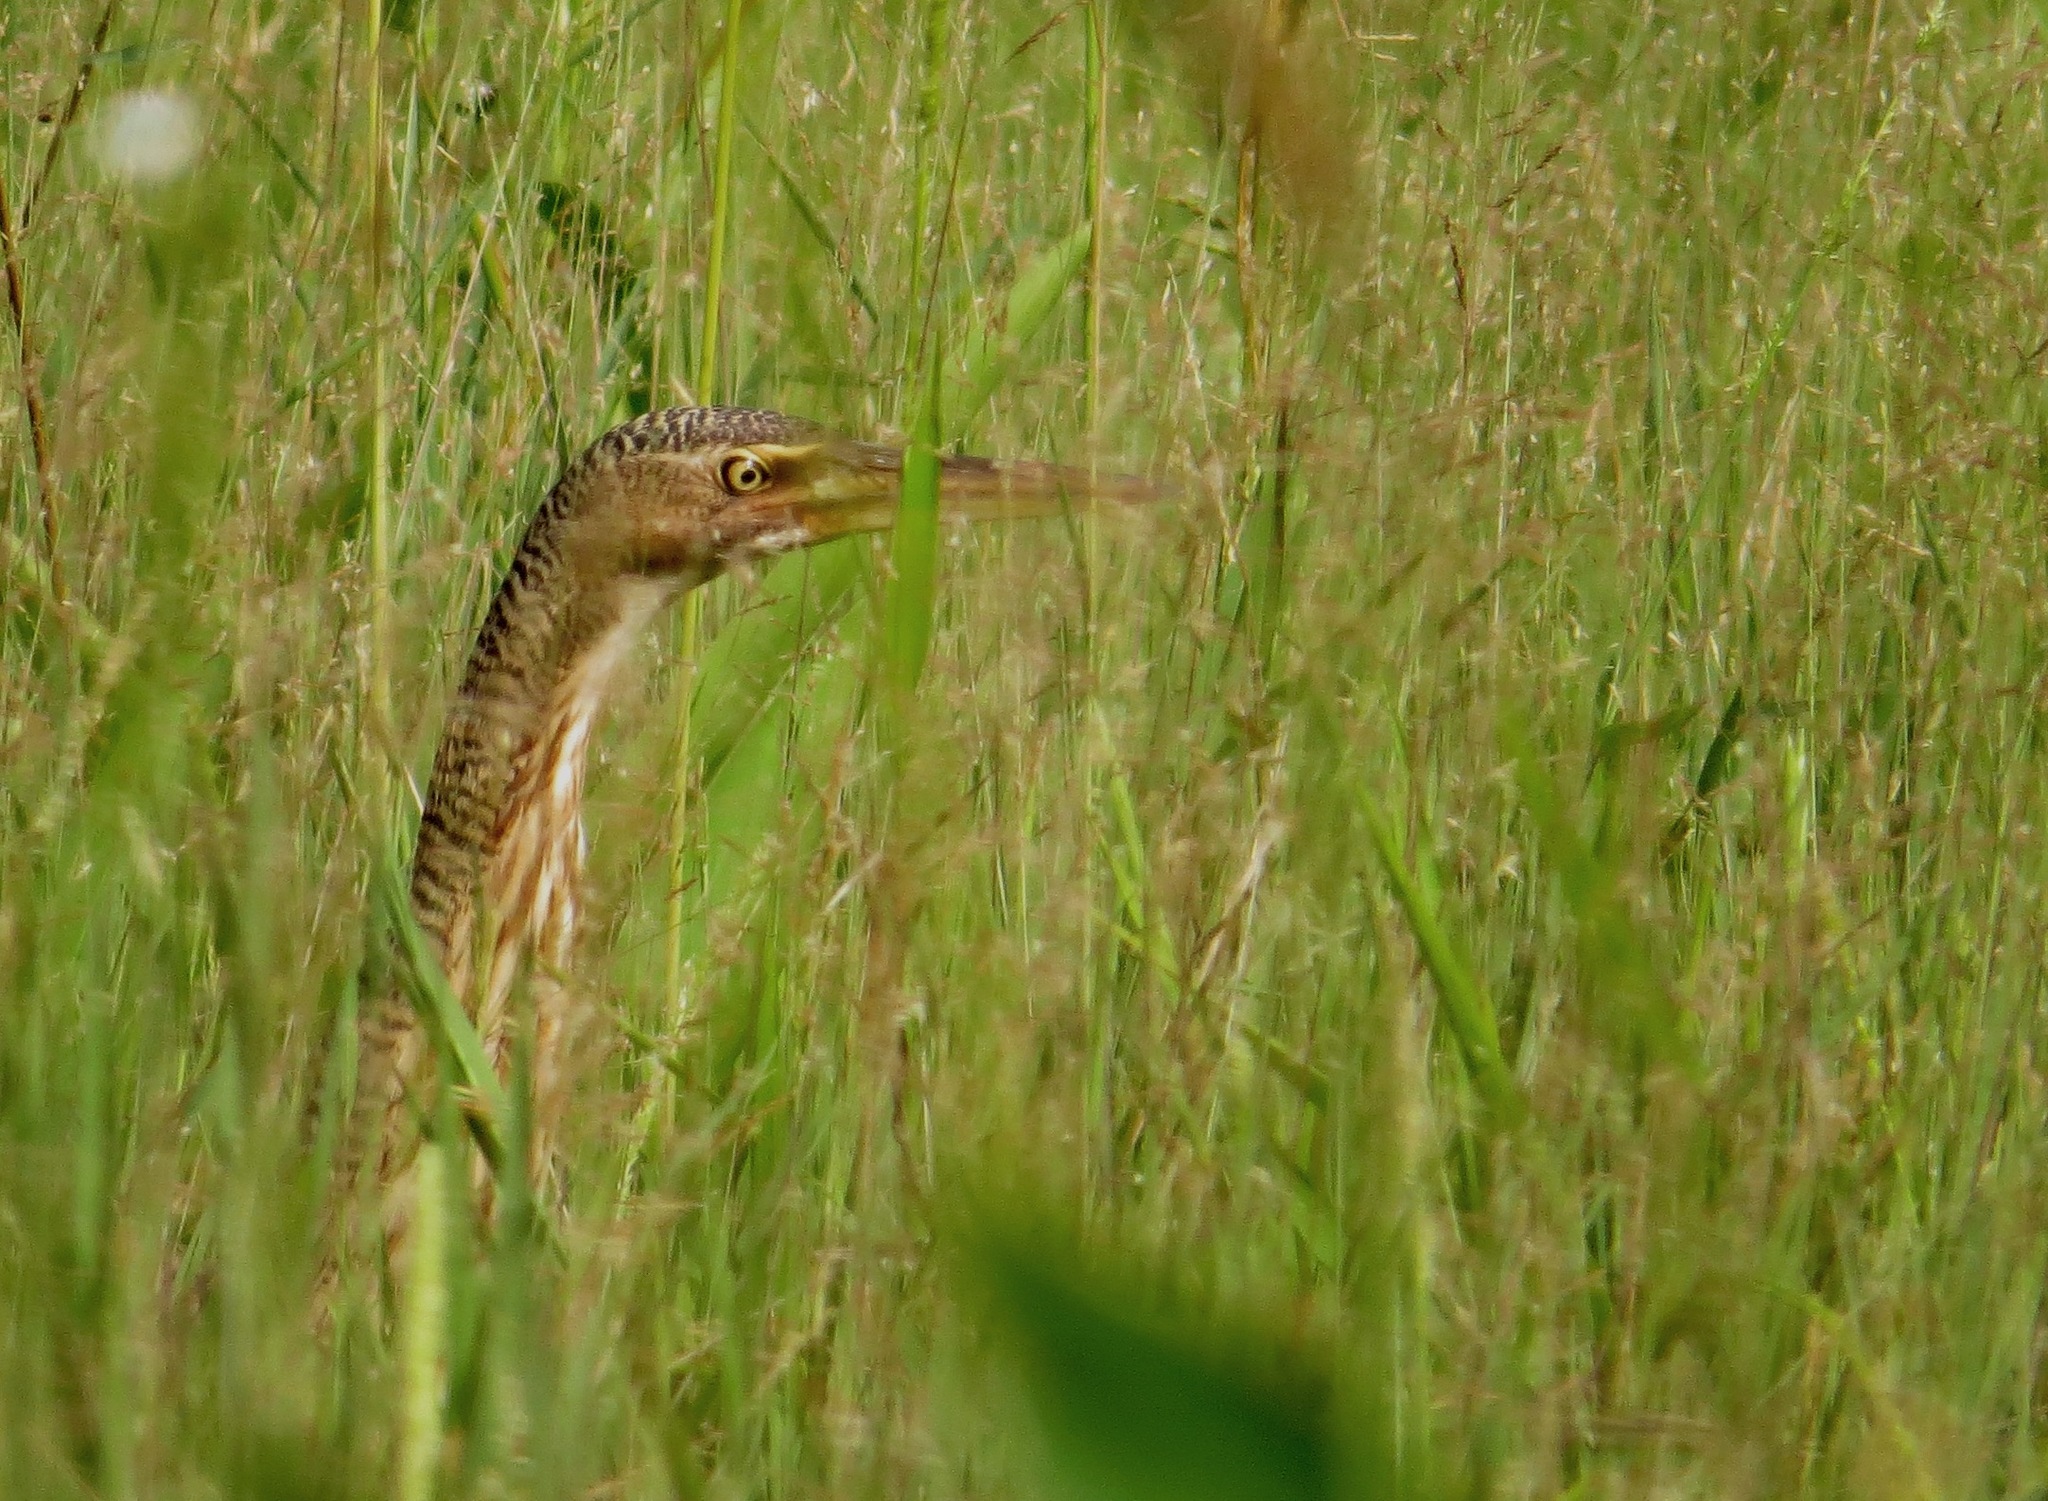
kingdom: Animalia
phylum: Chordata
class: Aves
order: Pelecaniformes
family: Ardeidae
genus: Botaurus
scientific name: Botaurus pinnatus
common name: Pinnated bittern
